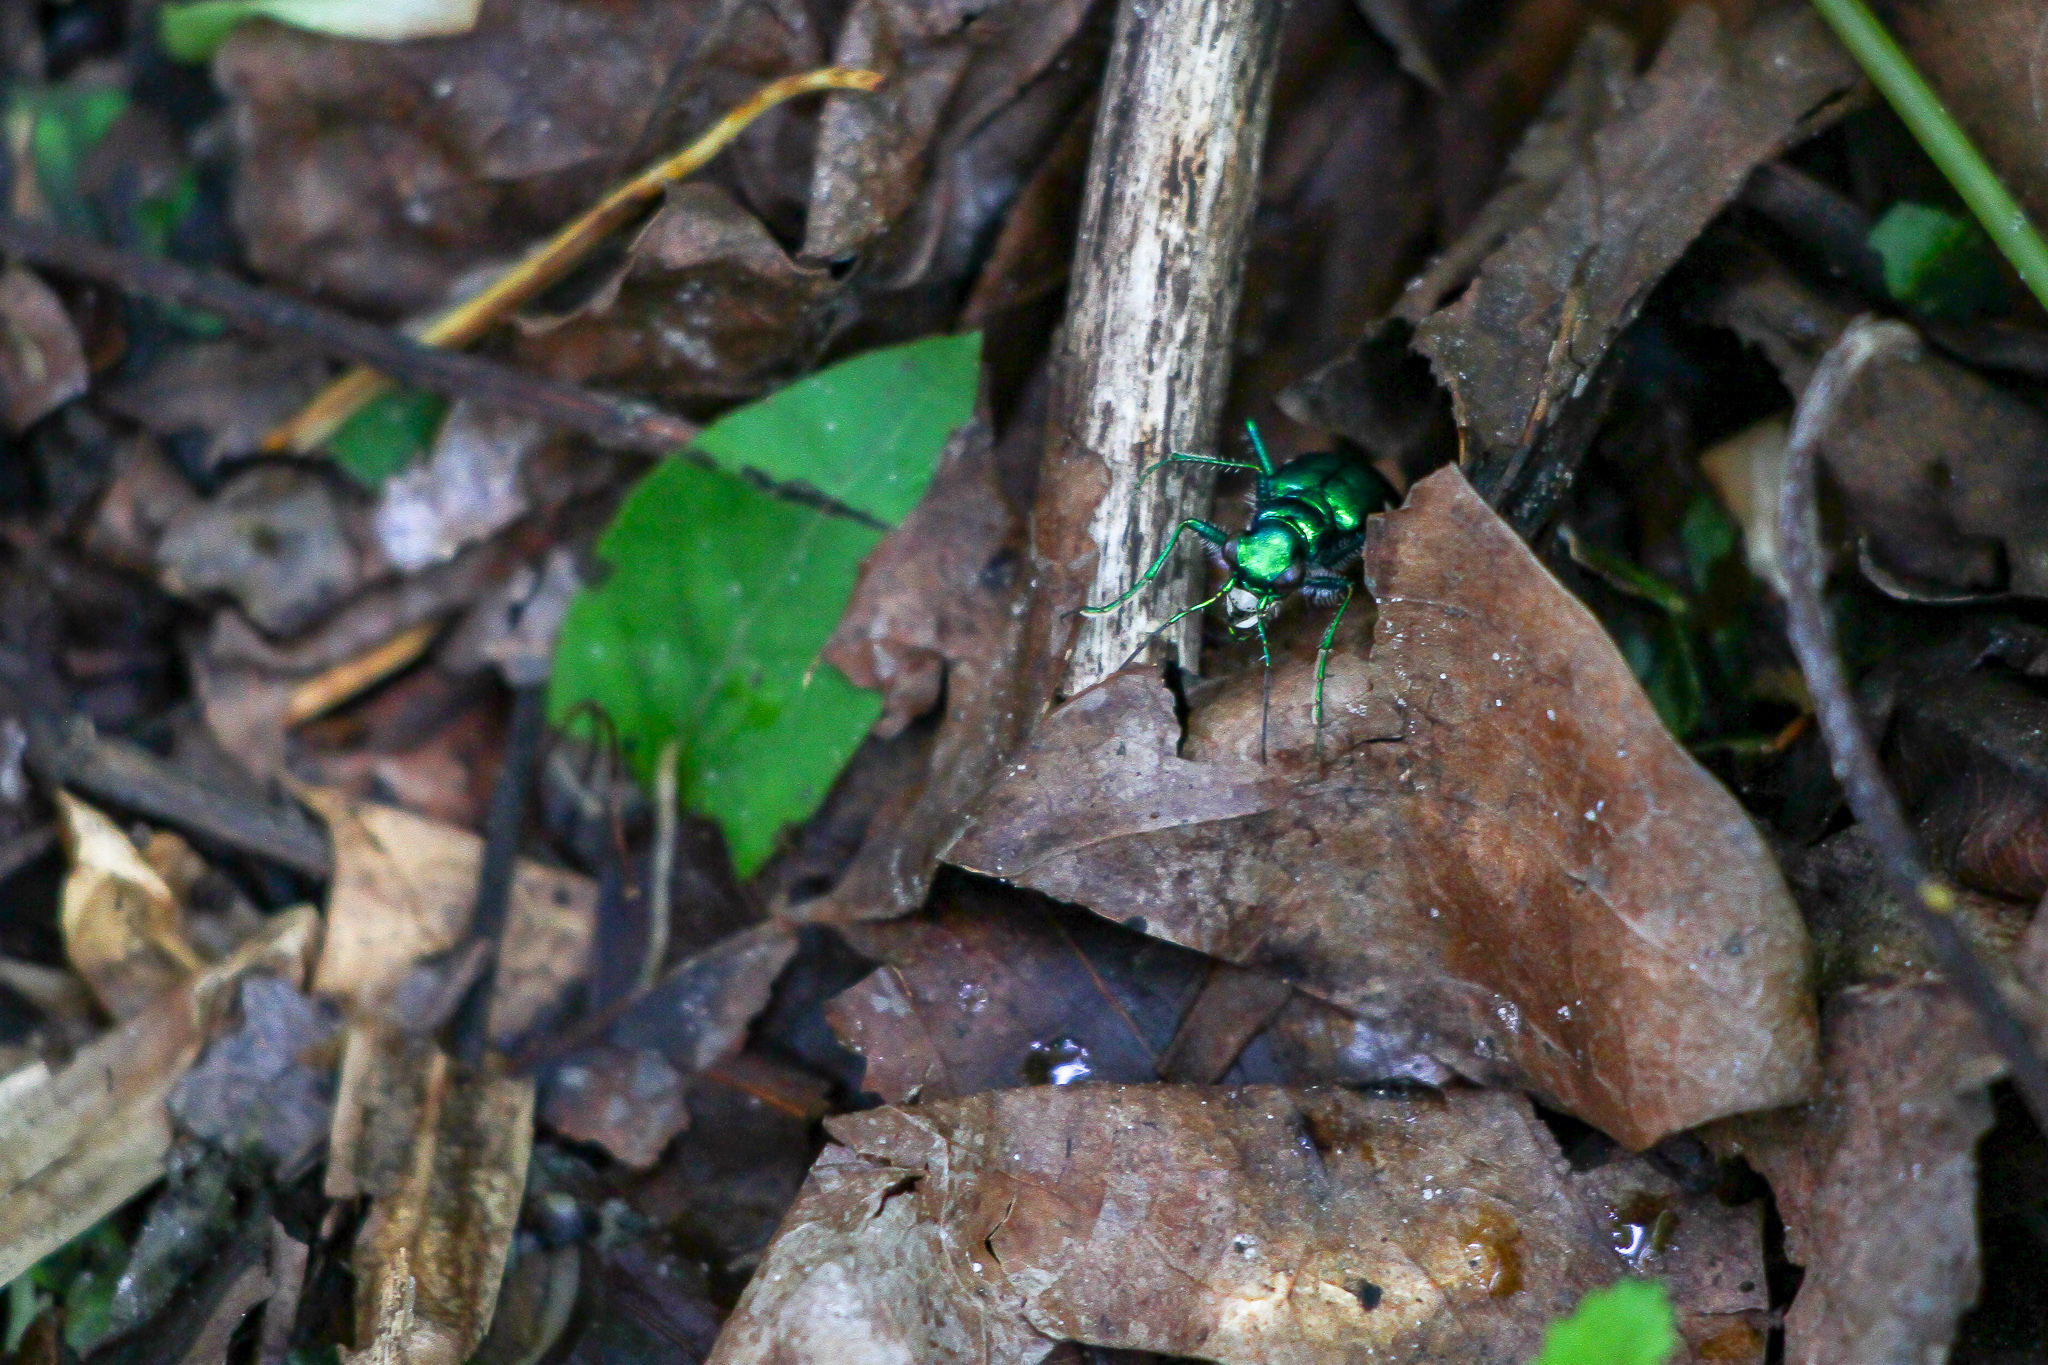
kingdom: Animalia
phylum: Arthropoda
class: Insecta
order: Coleoptera
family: Carabidae
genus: Cicindela
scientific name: Cicindela sexguttata
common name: Six-spotted tiger beetle
